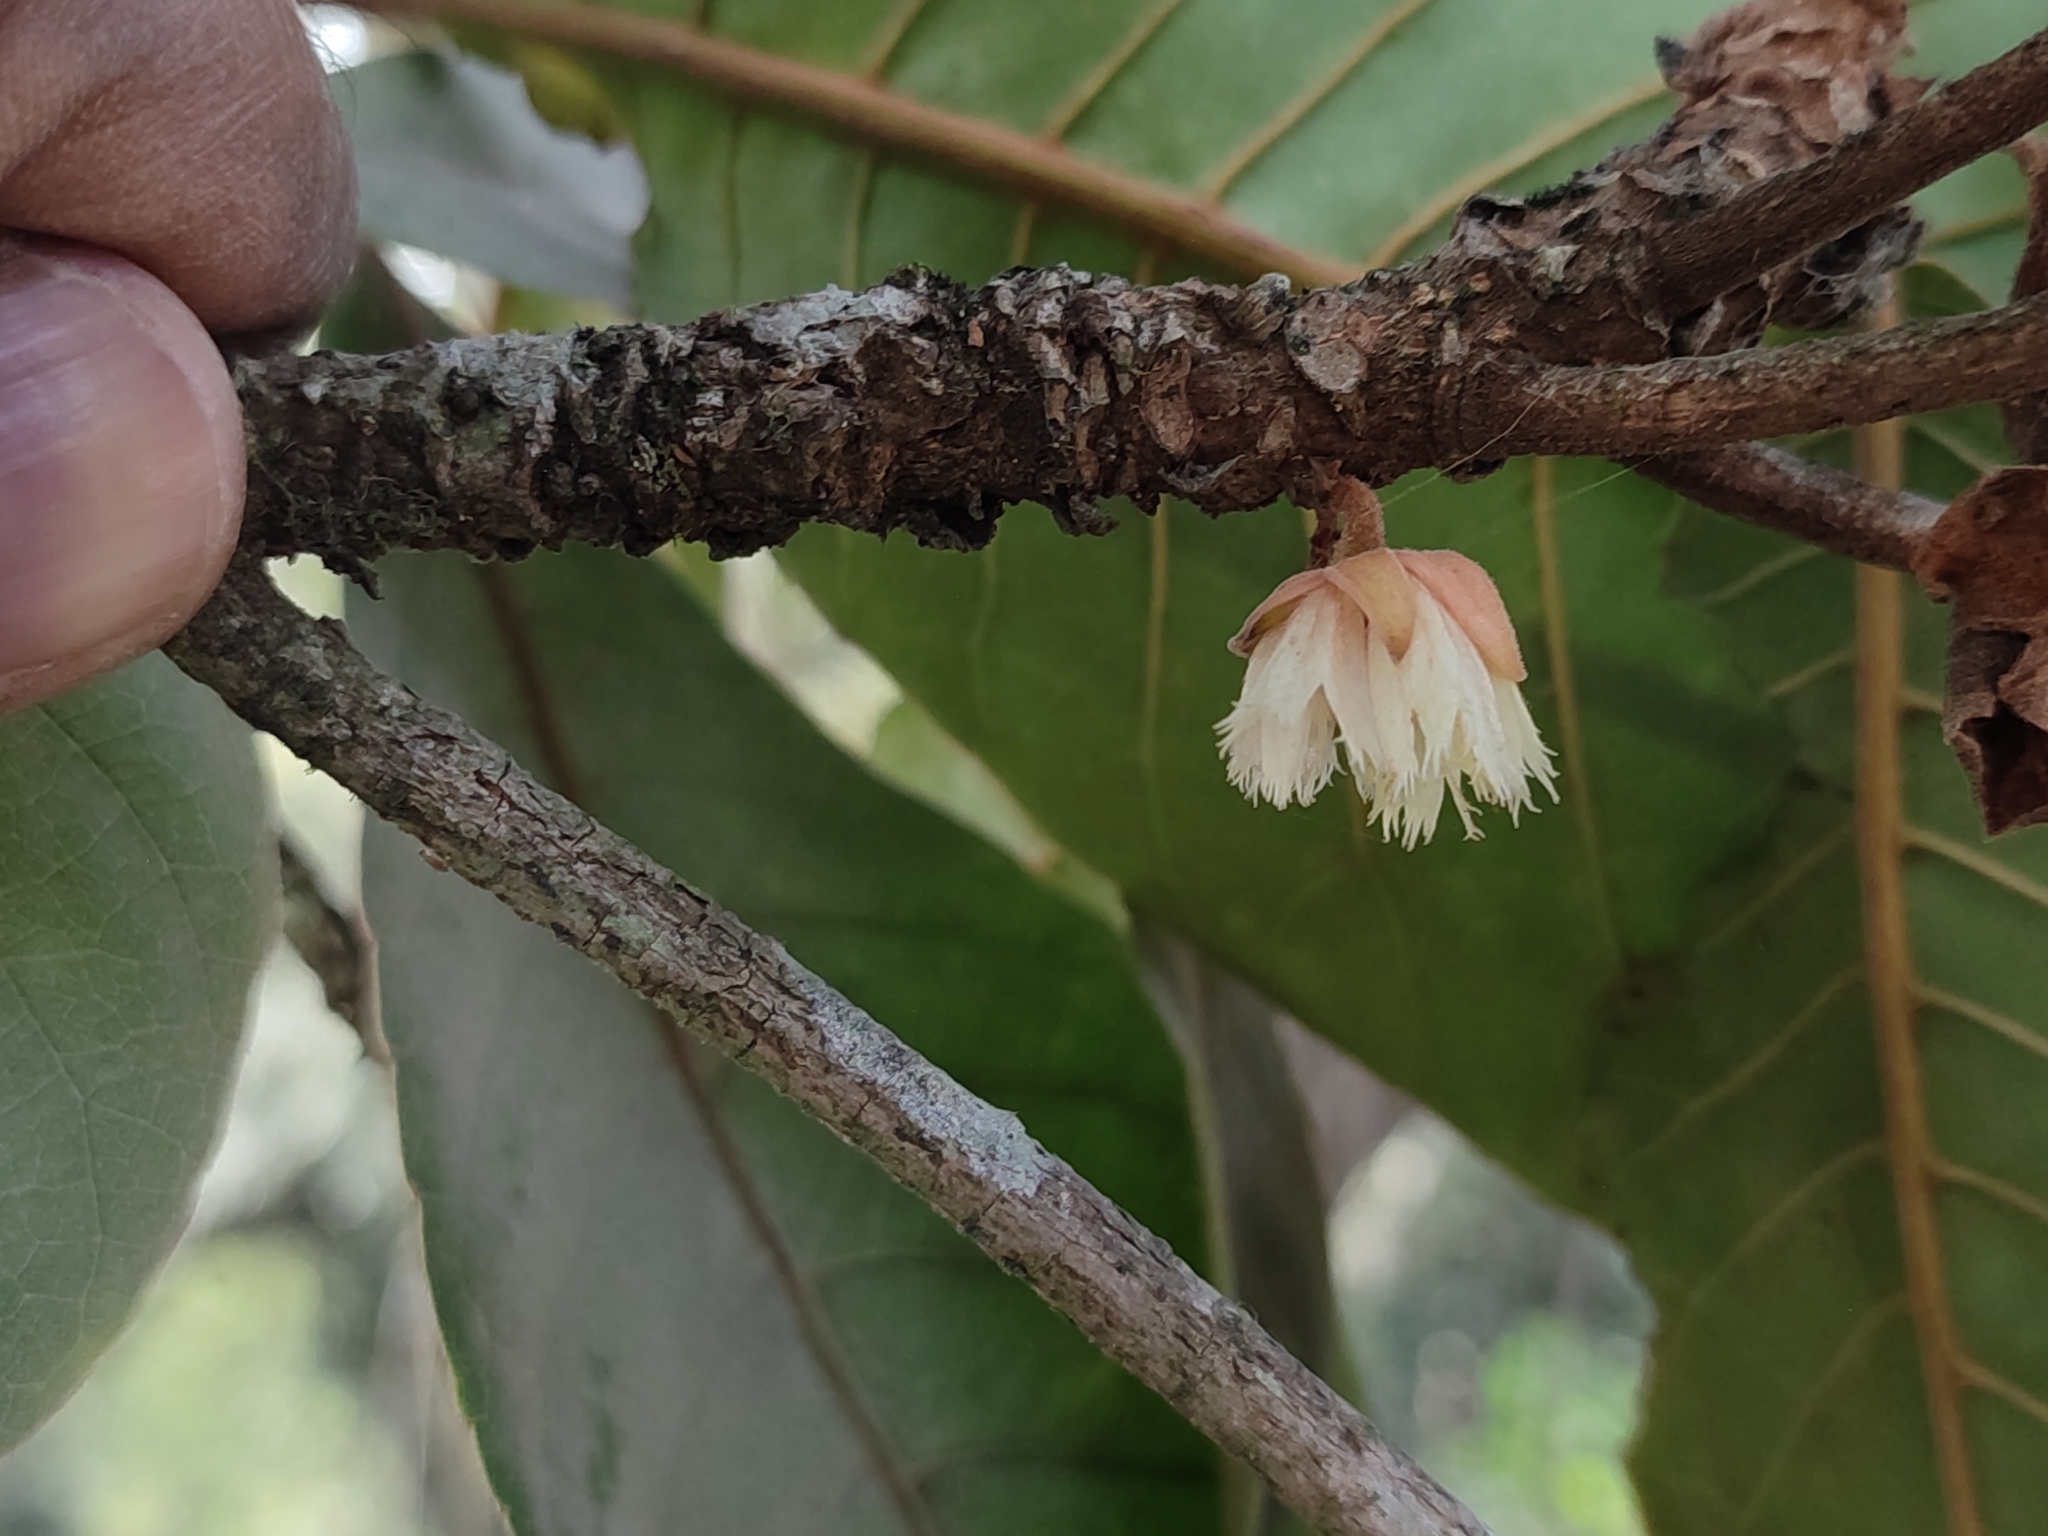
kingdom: Plantae
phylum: Tracheophyta
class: Magnoliopsida
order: Oxalidales
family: Elaeocarpaceae
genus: Elaeocarpus
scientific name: Elaeocarpus tuberculatus
